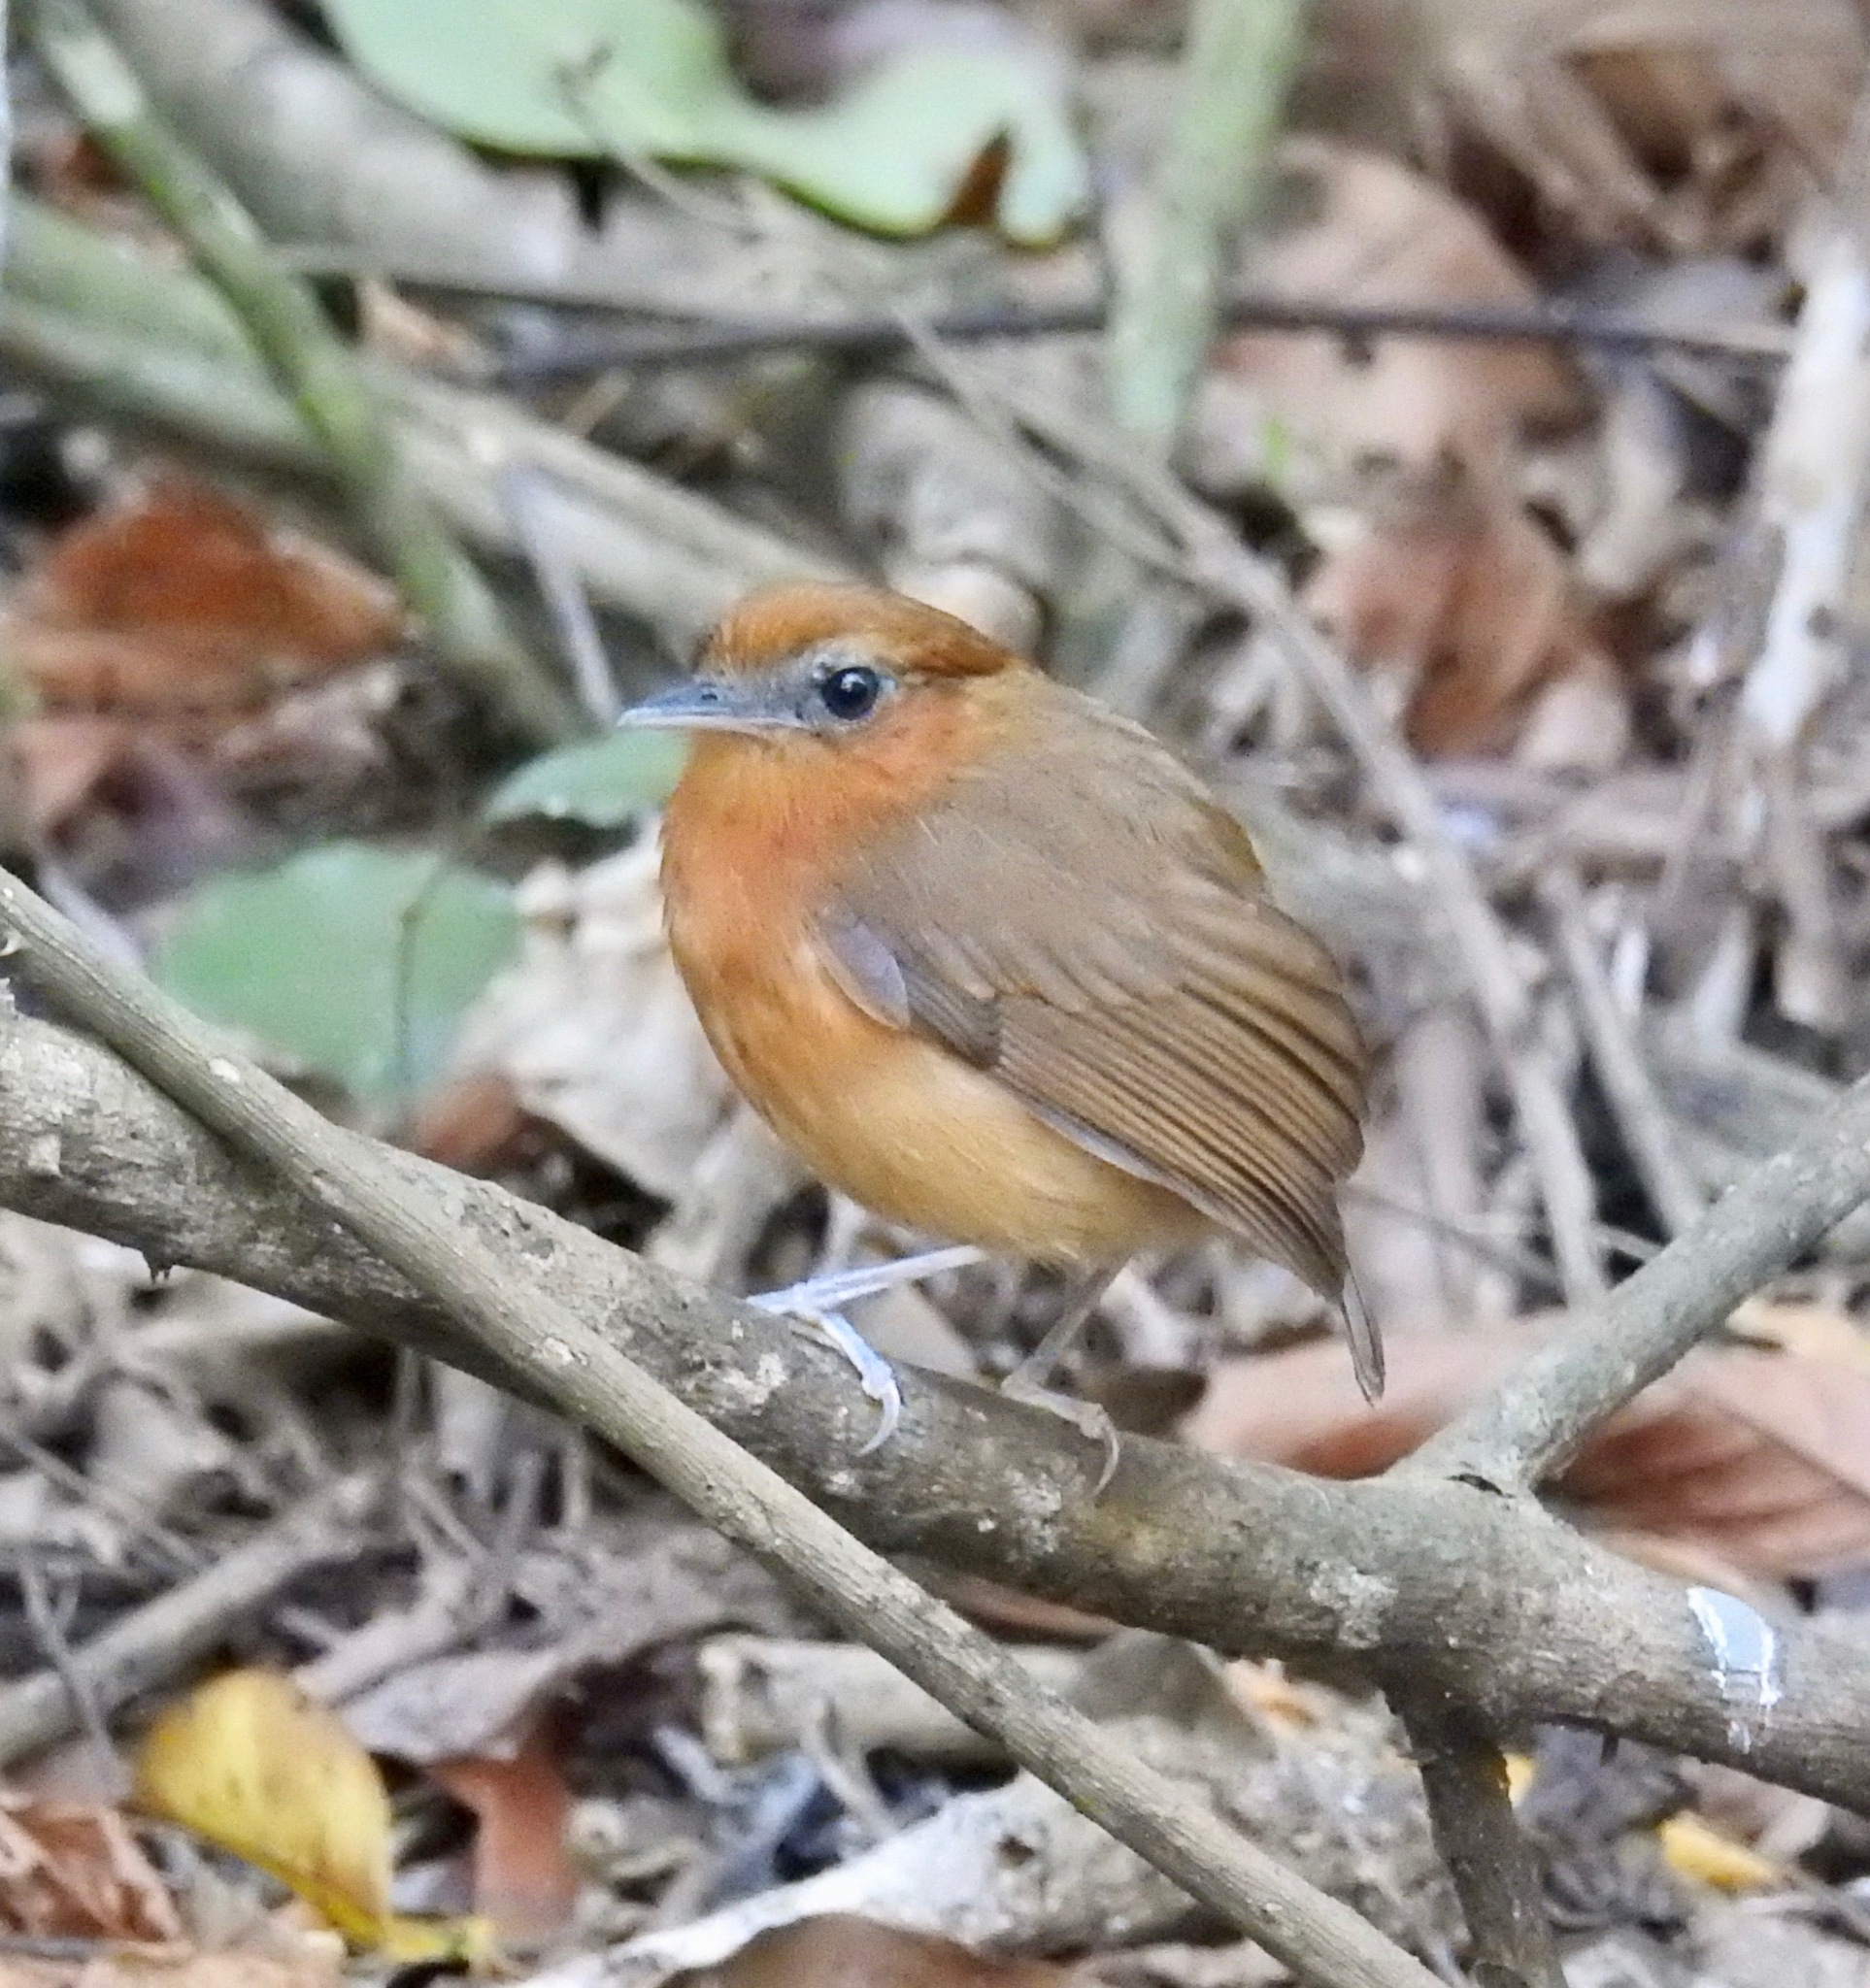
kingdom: Animalia
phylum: Chordata
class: Aves
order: Passeriformes
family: Conopophagidae
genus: Conopophaga
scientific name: Conopophaga cearae
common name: Ceara gnateater
